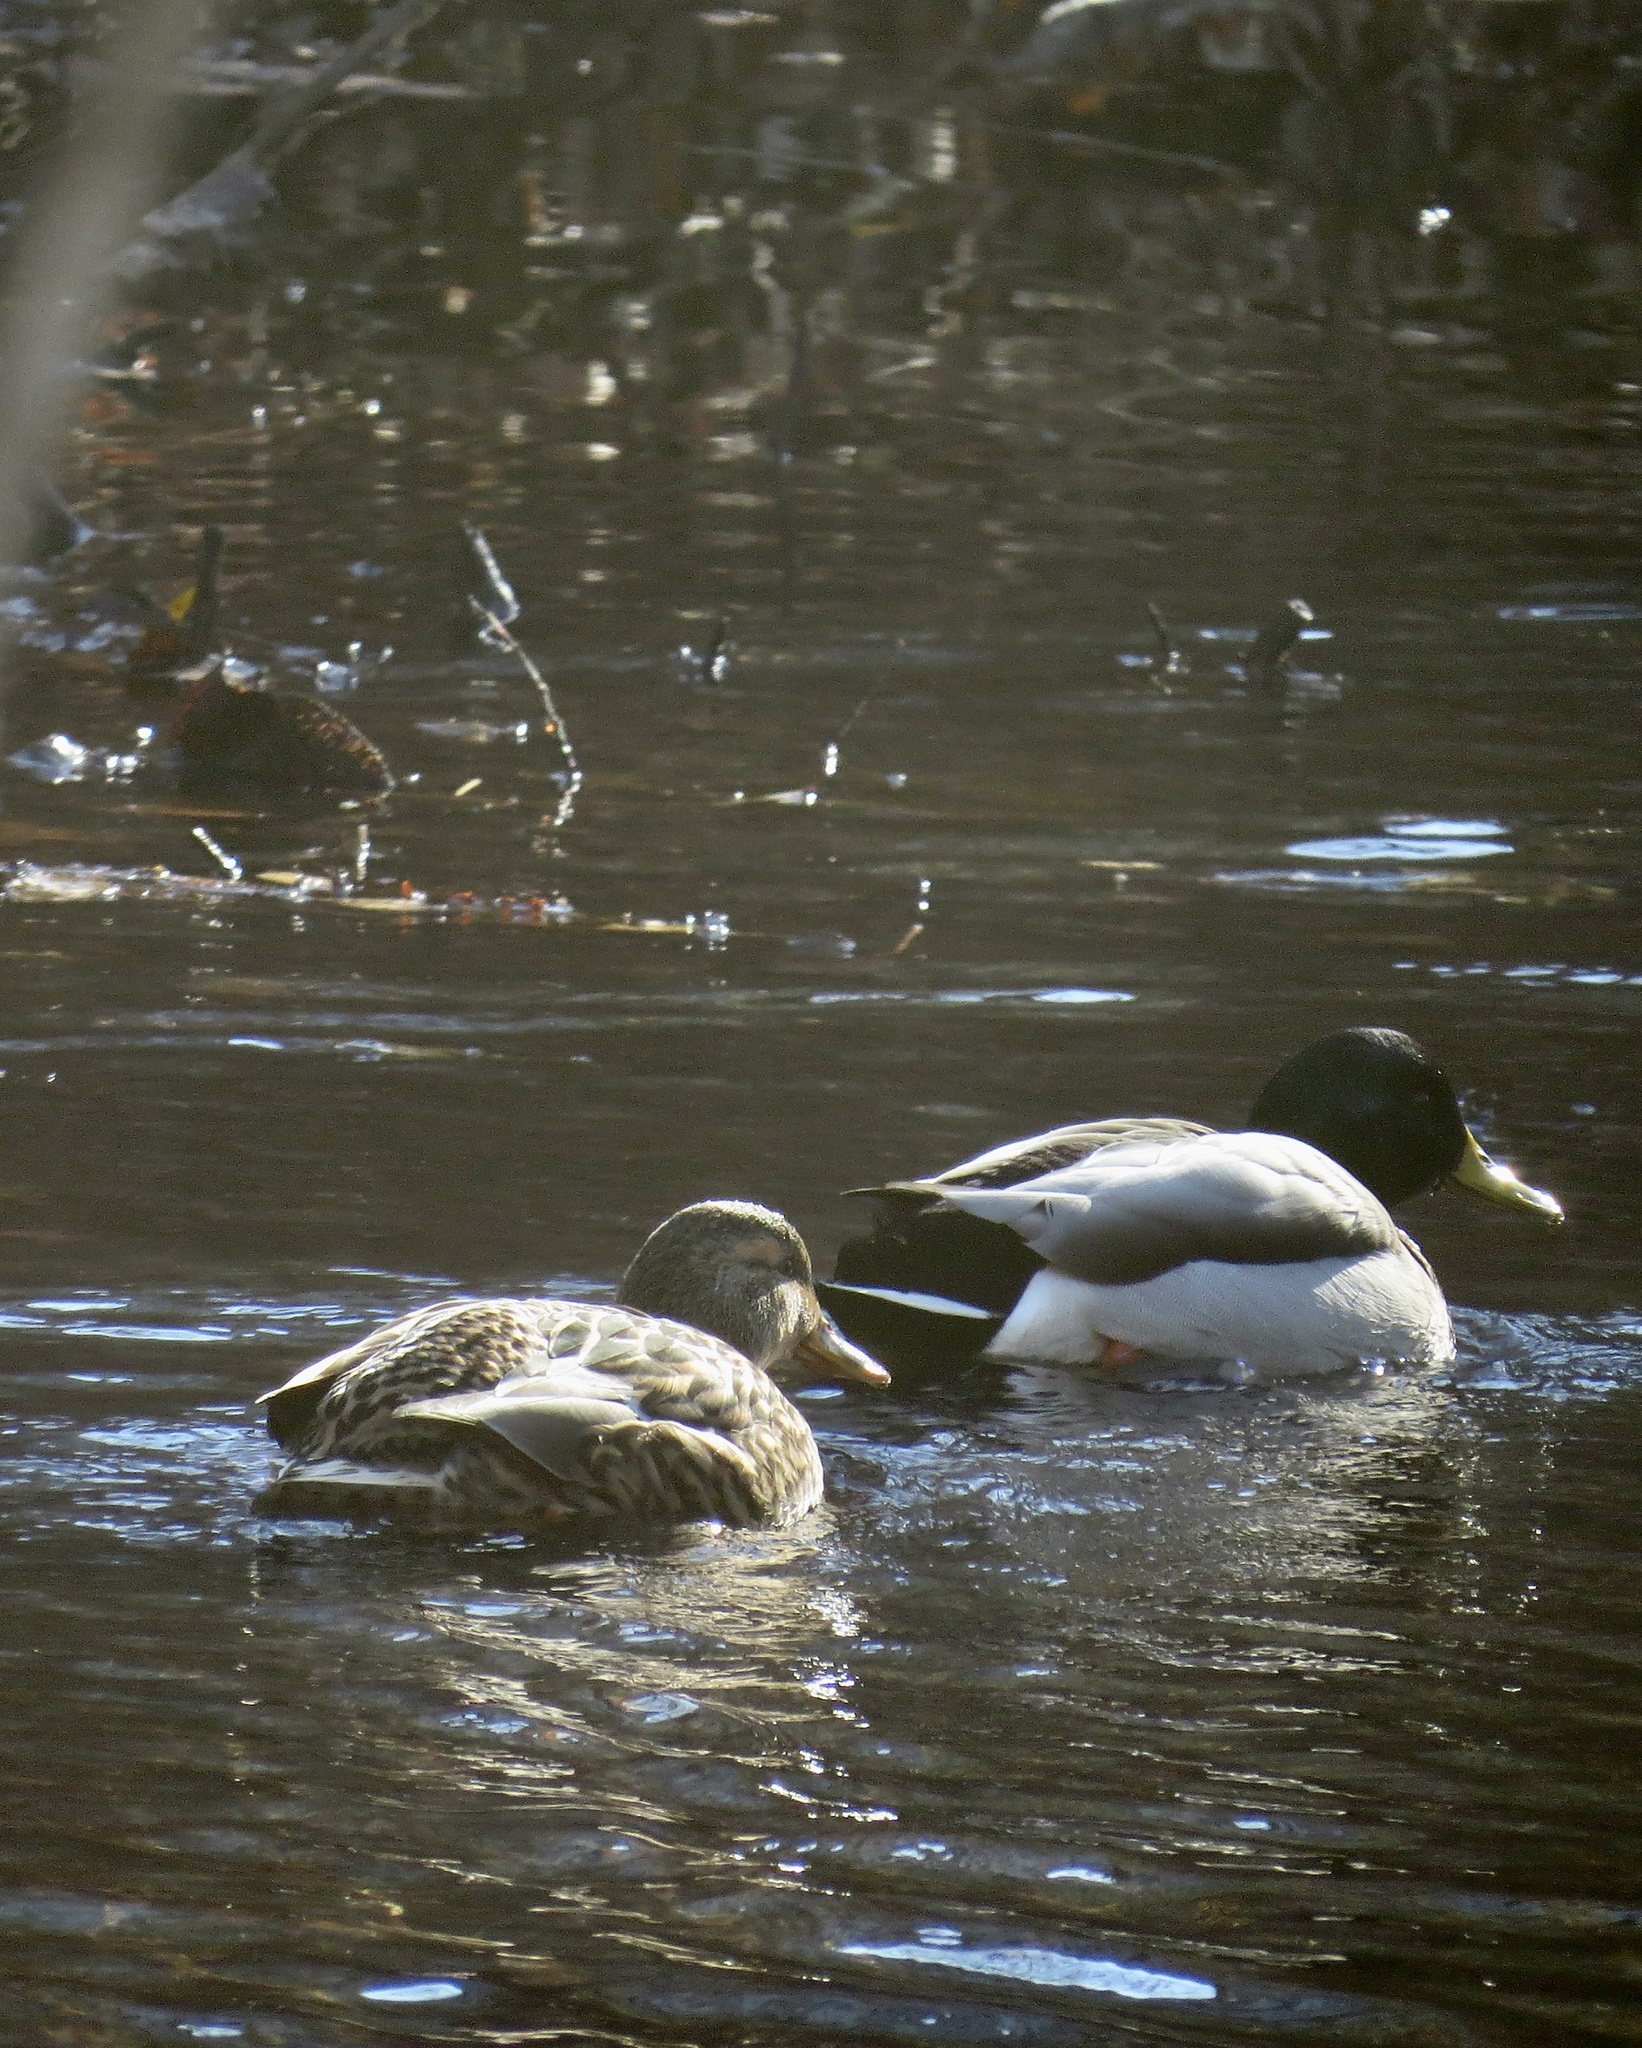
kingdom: Animalia
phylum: Chordata
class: Aves
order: Anseriformes
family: Anatidae
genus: Anas
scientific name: Anas platyrhynchos
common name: Mallard
